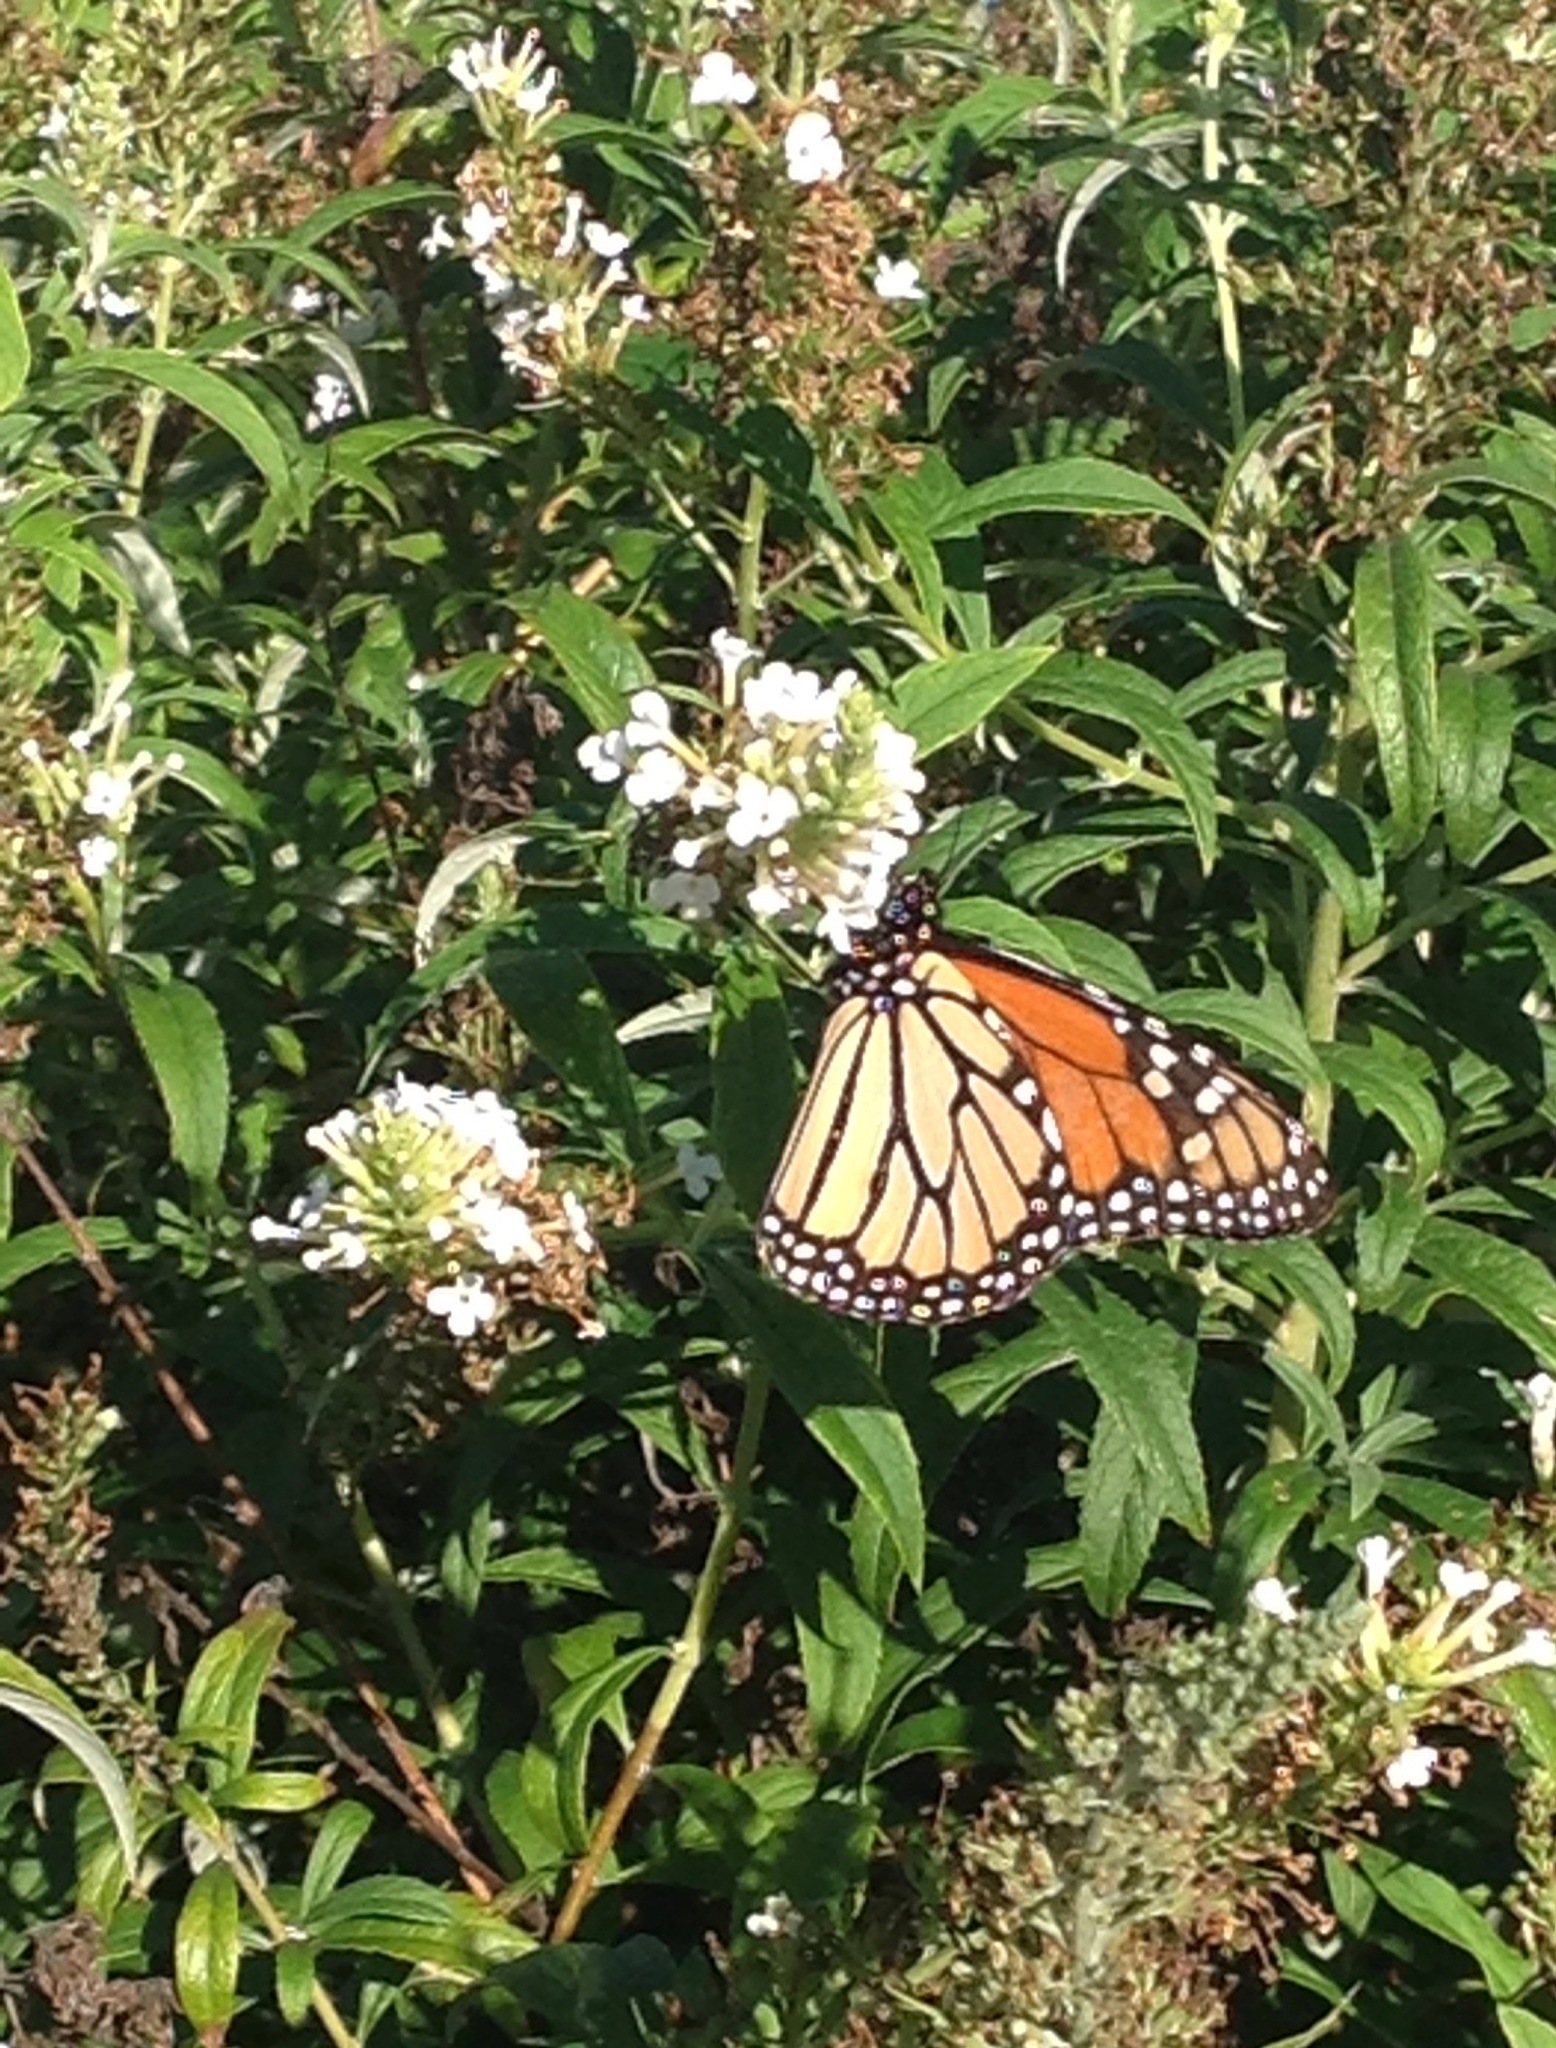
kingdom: Animalia
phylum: Arthropoda
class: Insecta
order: Lepidoptera
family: Nymphalidae
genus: Danaus
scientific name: Danaus plexippus
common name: Monarch
